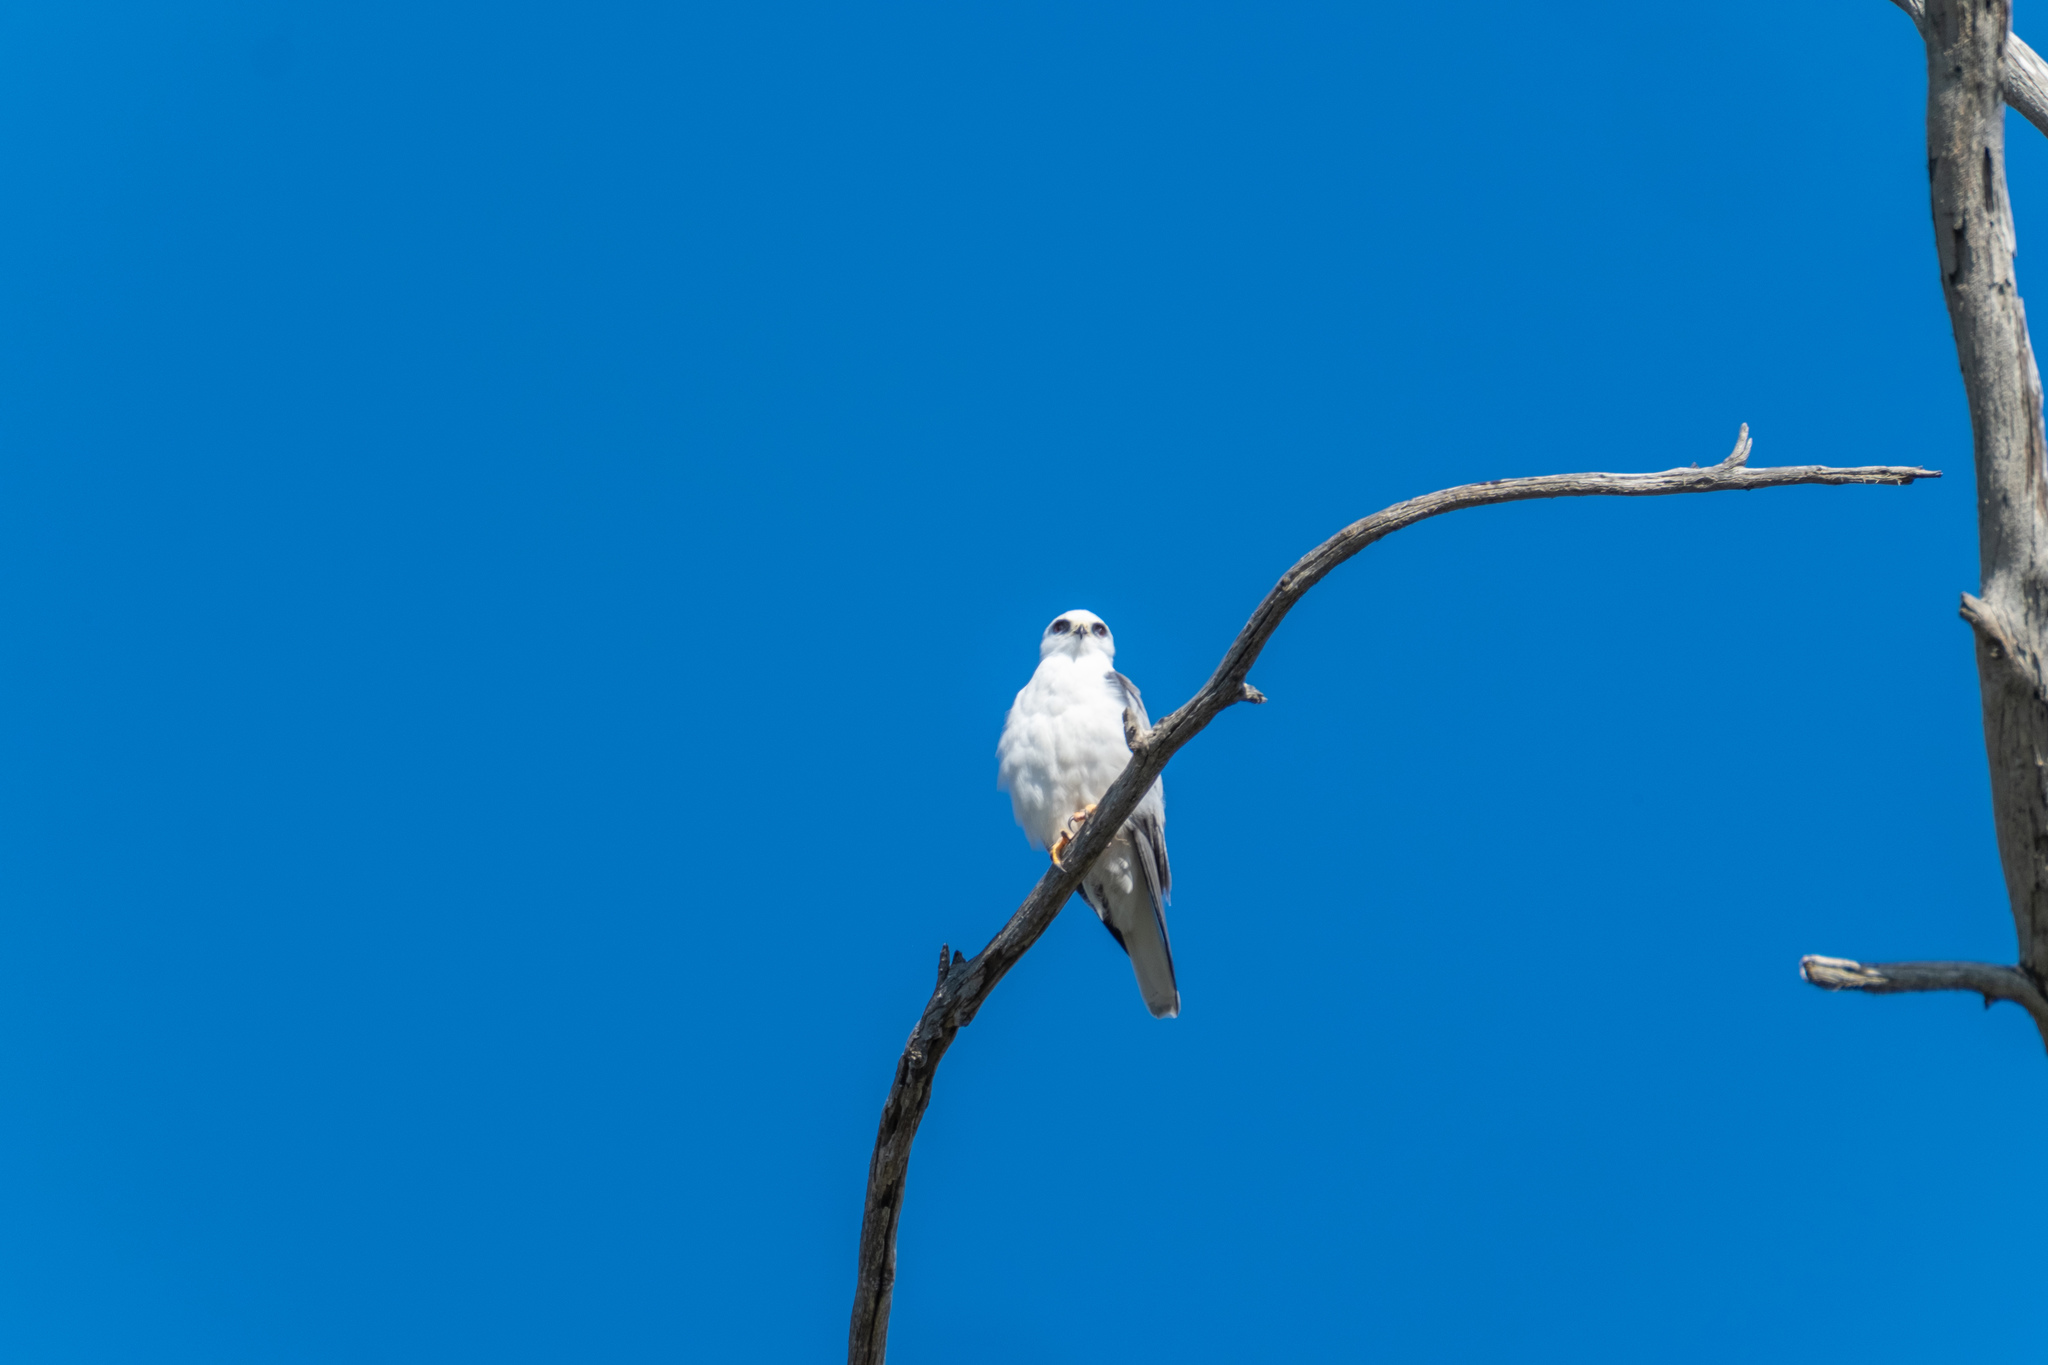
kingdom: Animalia
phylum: Chordata
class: Aves
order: Accipitriformes
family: Accipitridae
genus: Elanus
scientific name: Elanus leucurus
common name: White-tailed kite
